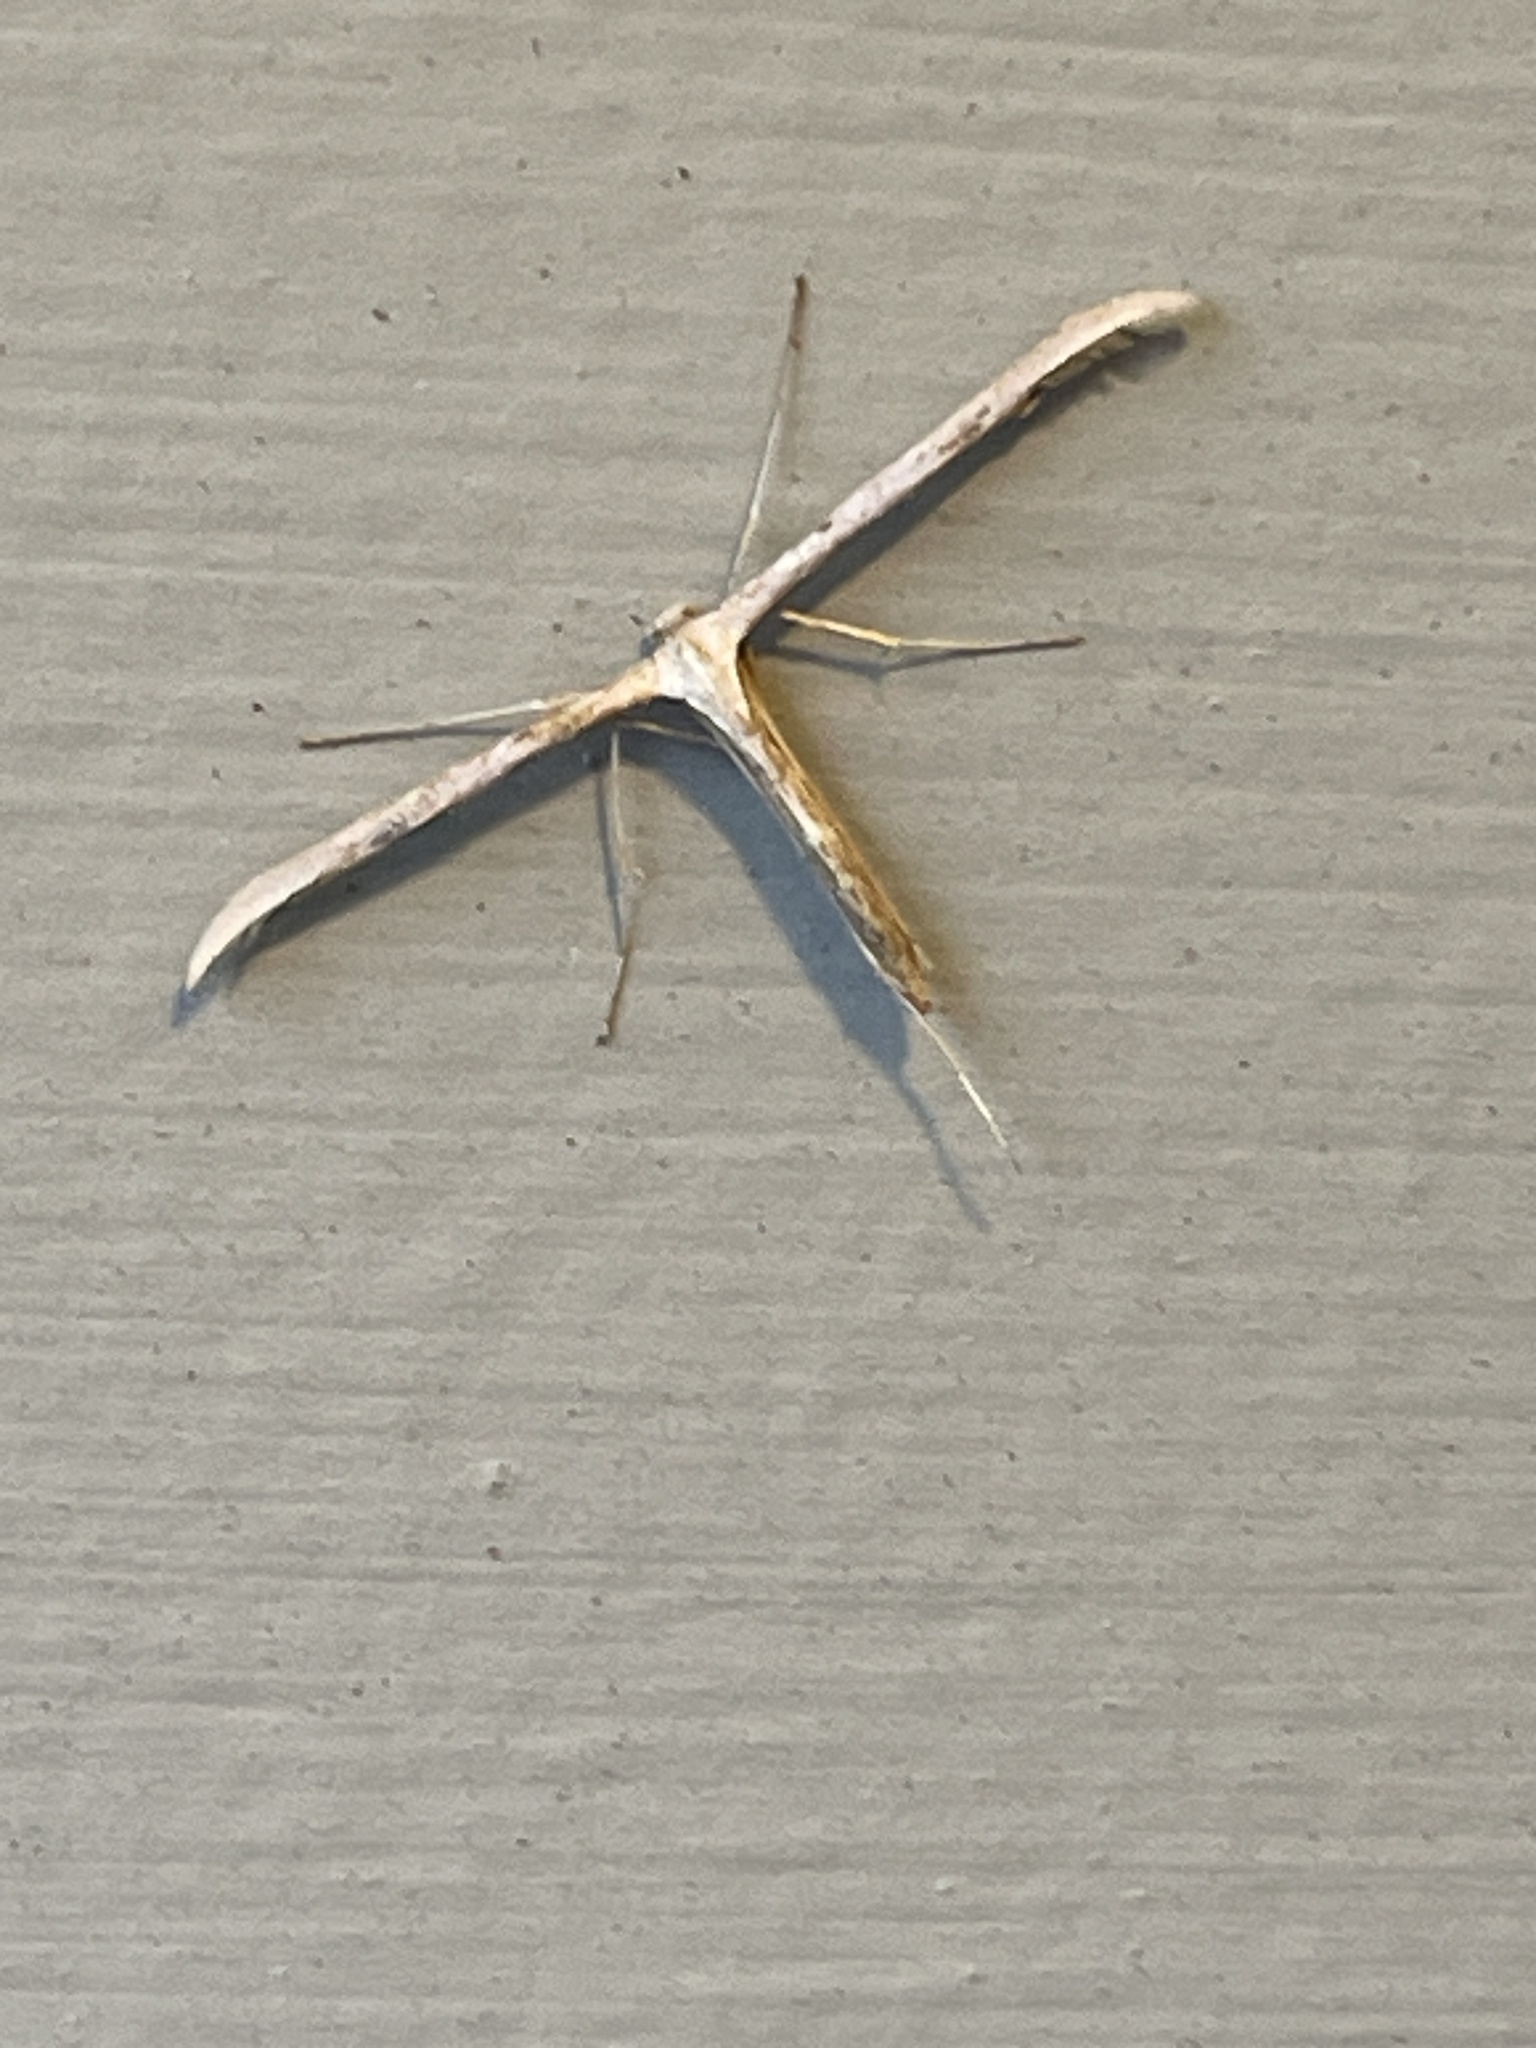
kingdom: Animalia
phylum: Arthropoda
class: Insecta
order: Lepidoptera
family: Pterophoridae
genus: Emmelina
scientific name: Emmelina monodactyla
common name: Common plume
